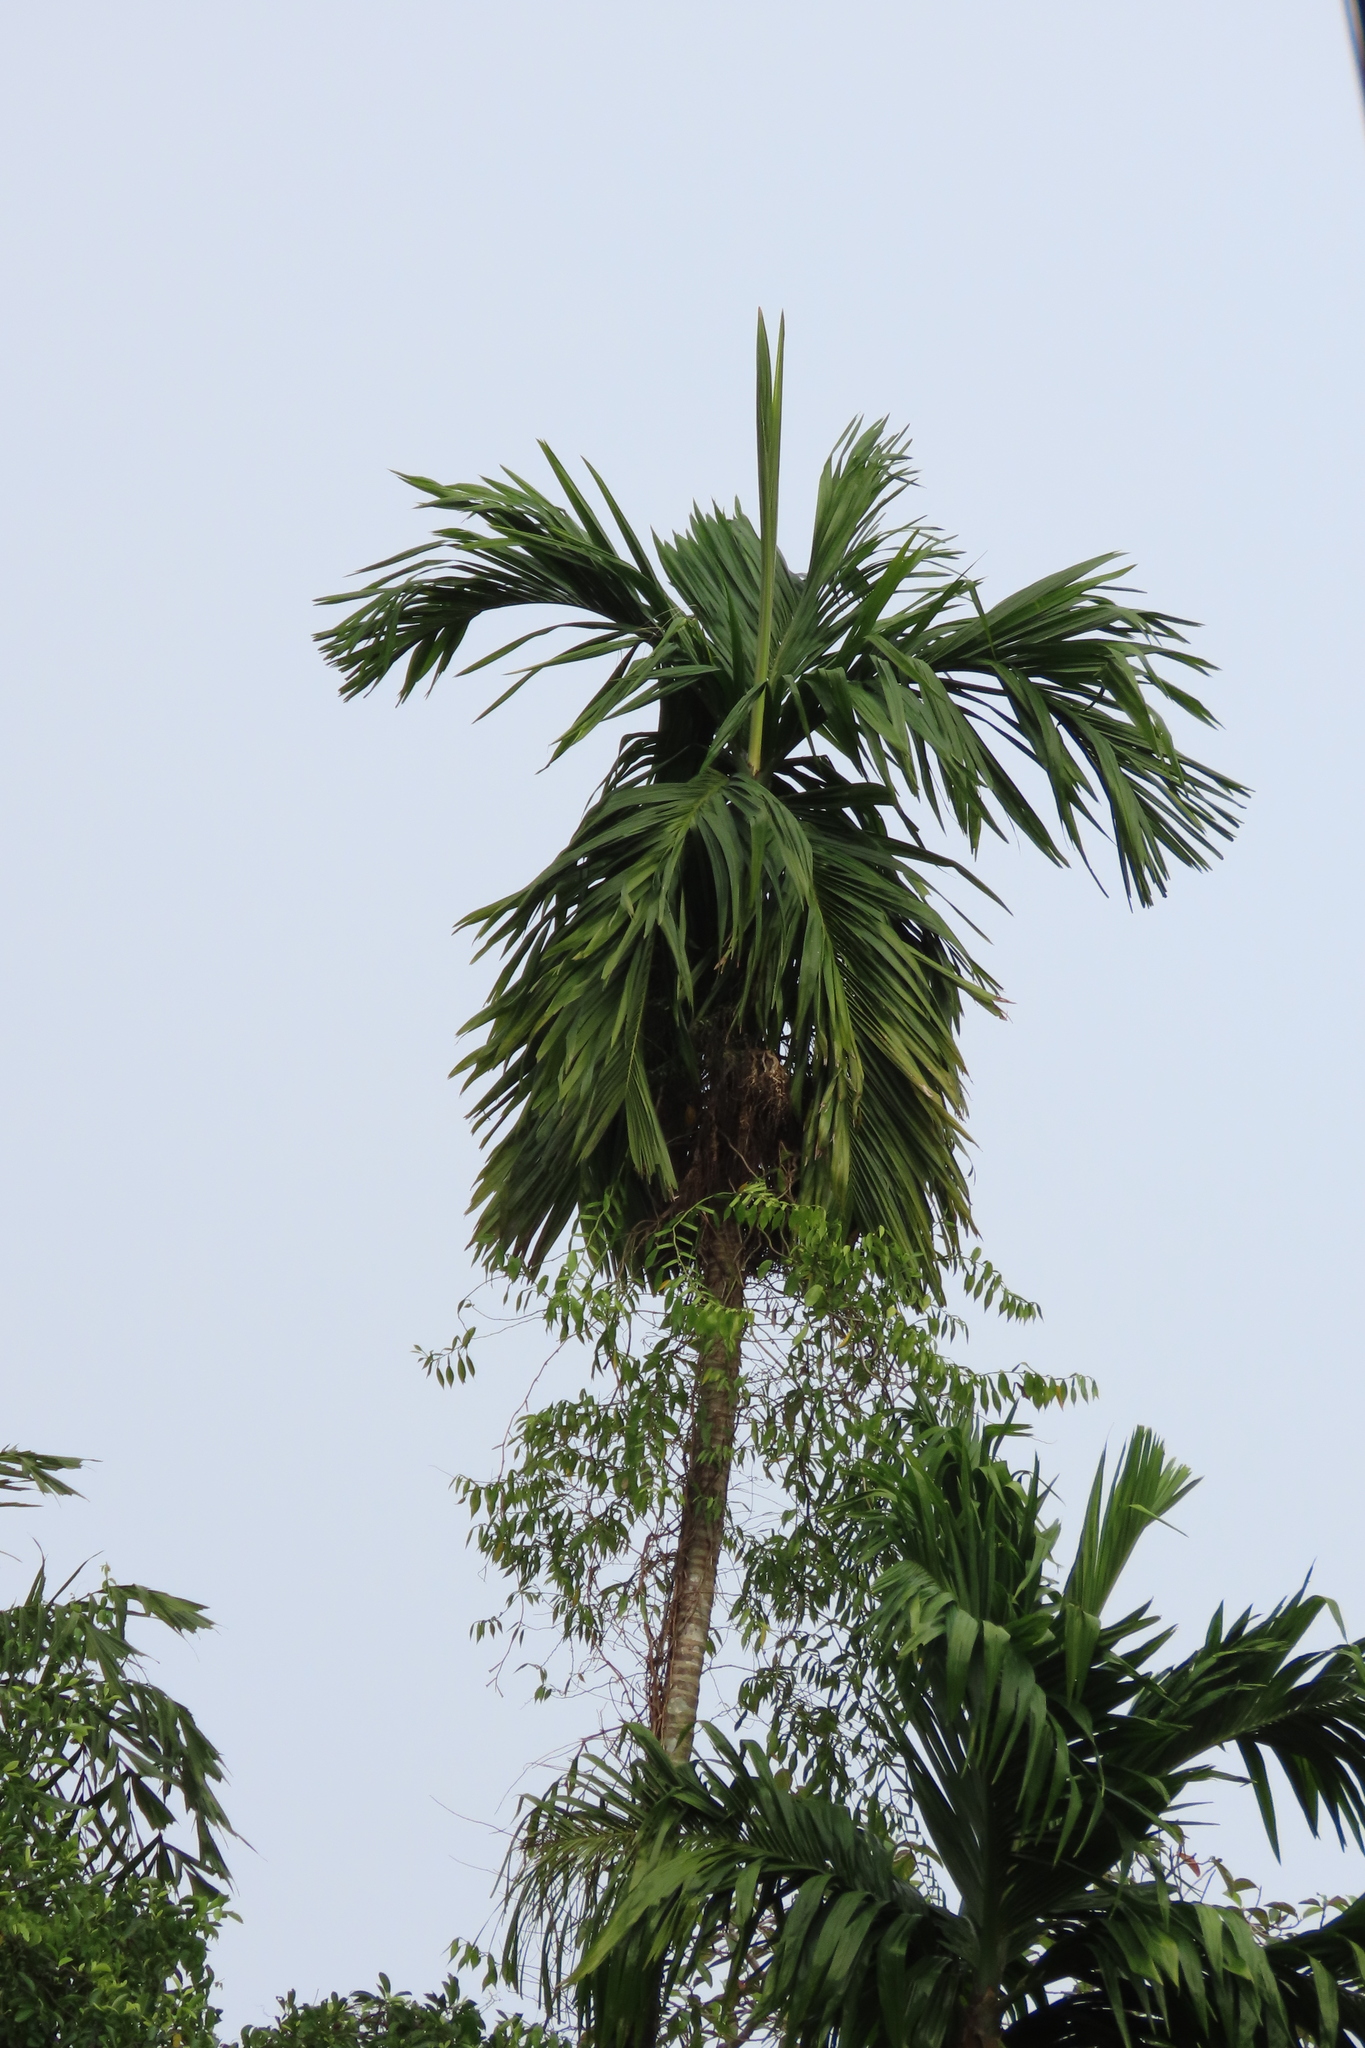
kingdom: Plantae
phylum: Tracheophyta
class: Liliopsida
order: Arecales
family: Arecaceae
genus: Areca
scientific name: Areca catechu
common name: Indian-nut
